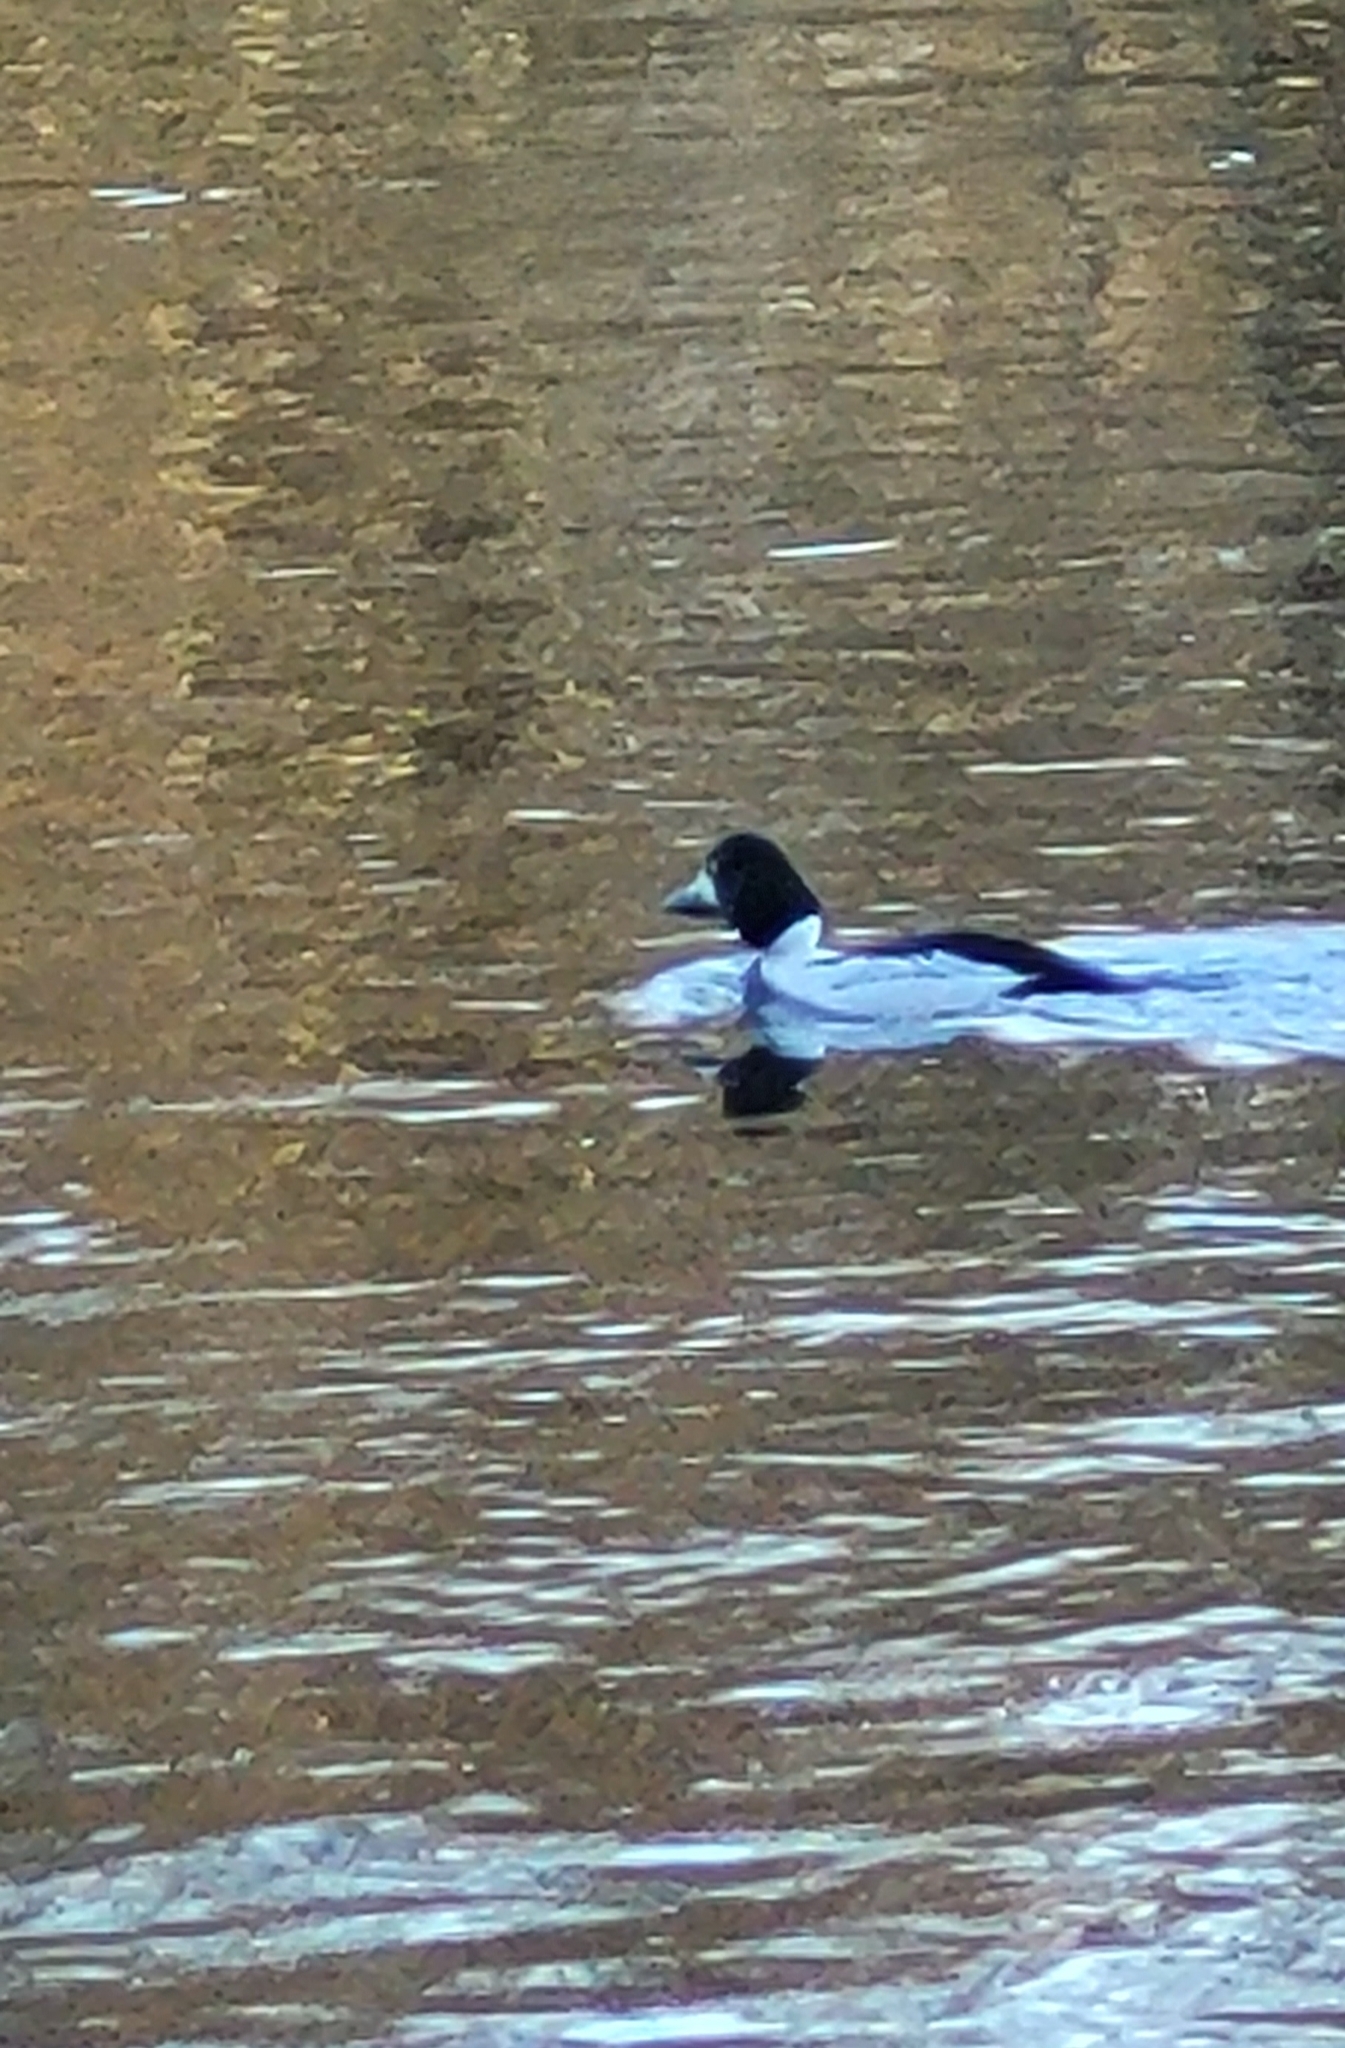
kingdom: Animalia
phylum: Chordata
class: Aves
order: Anseriformes
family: Anatidae
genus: Bucephala
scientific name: Bucephala clangula
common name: Common goldeneye
